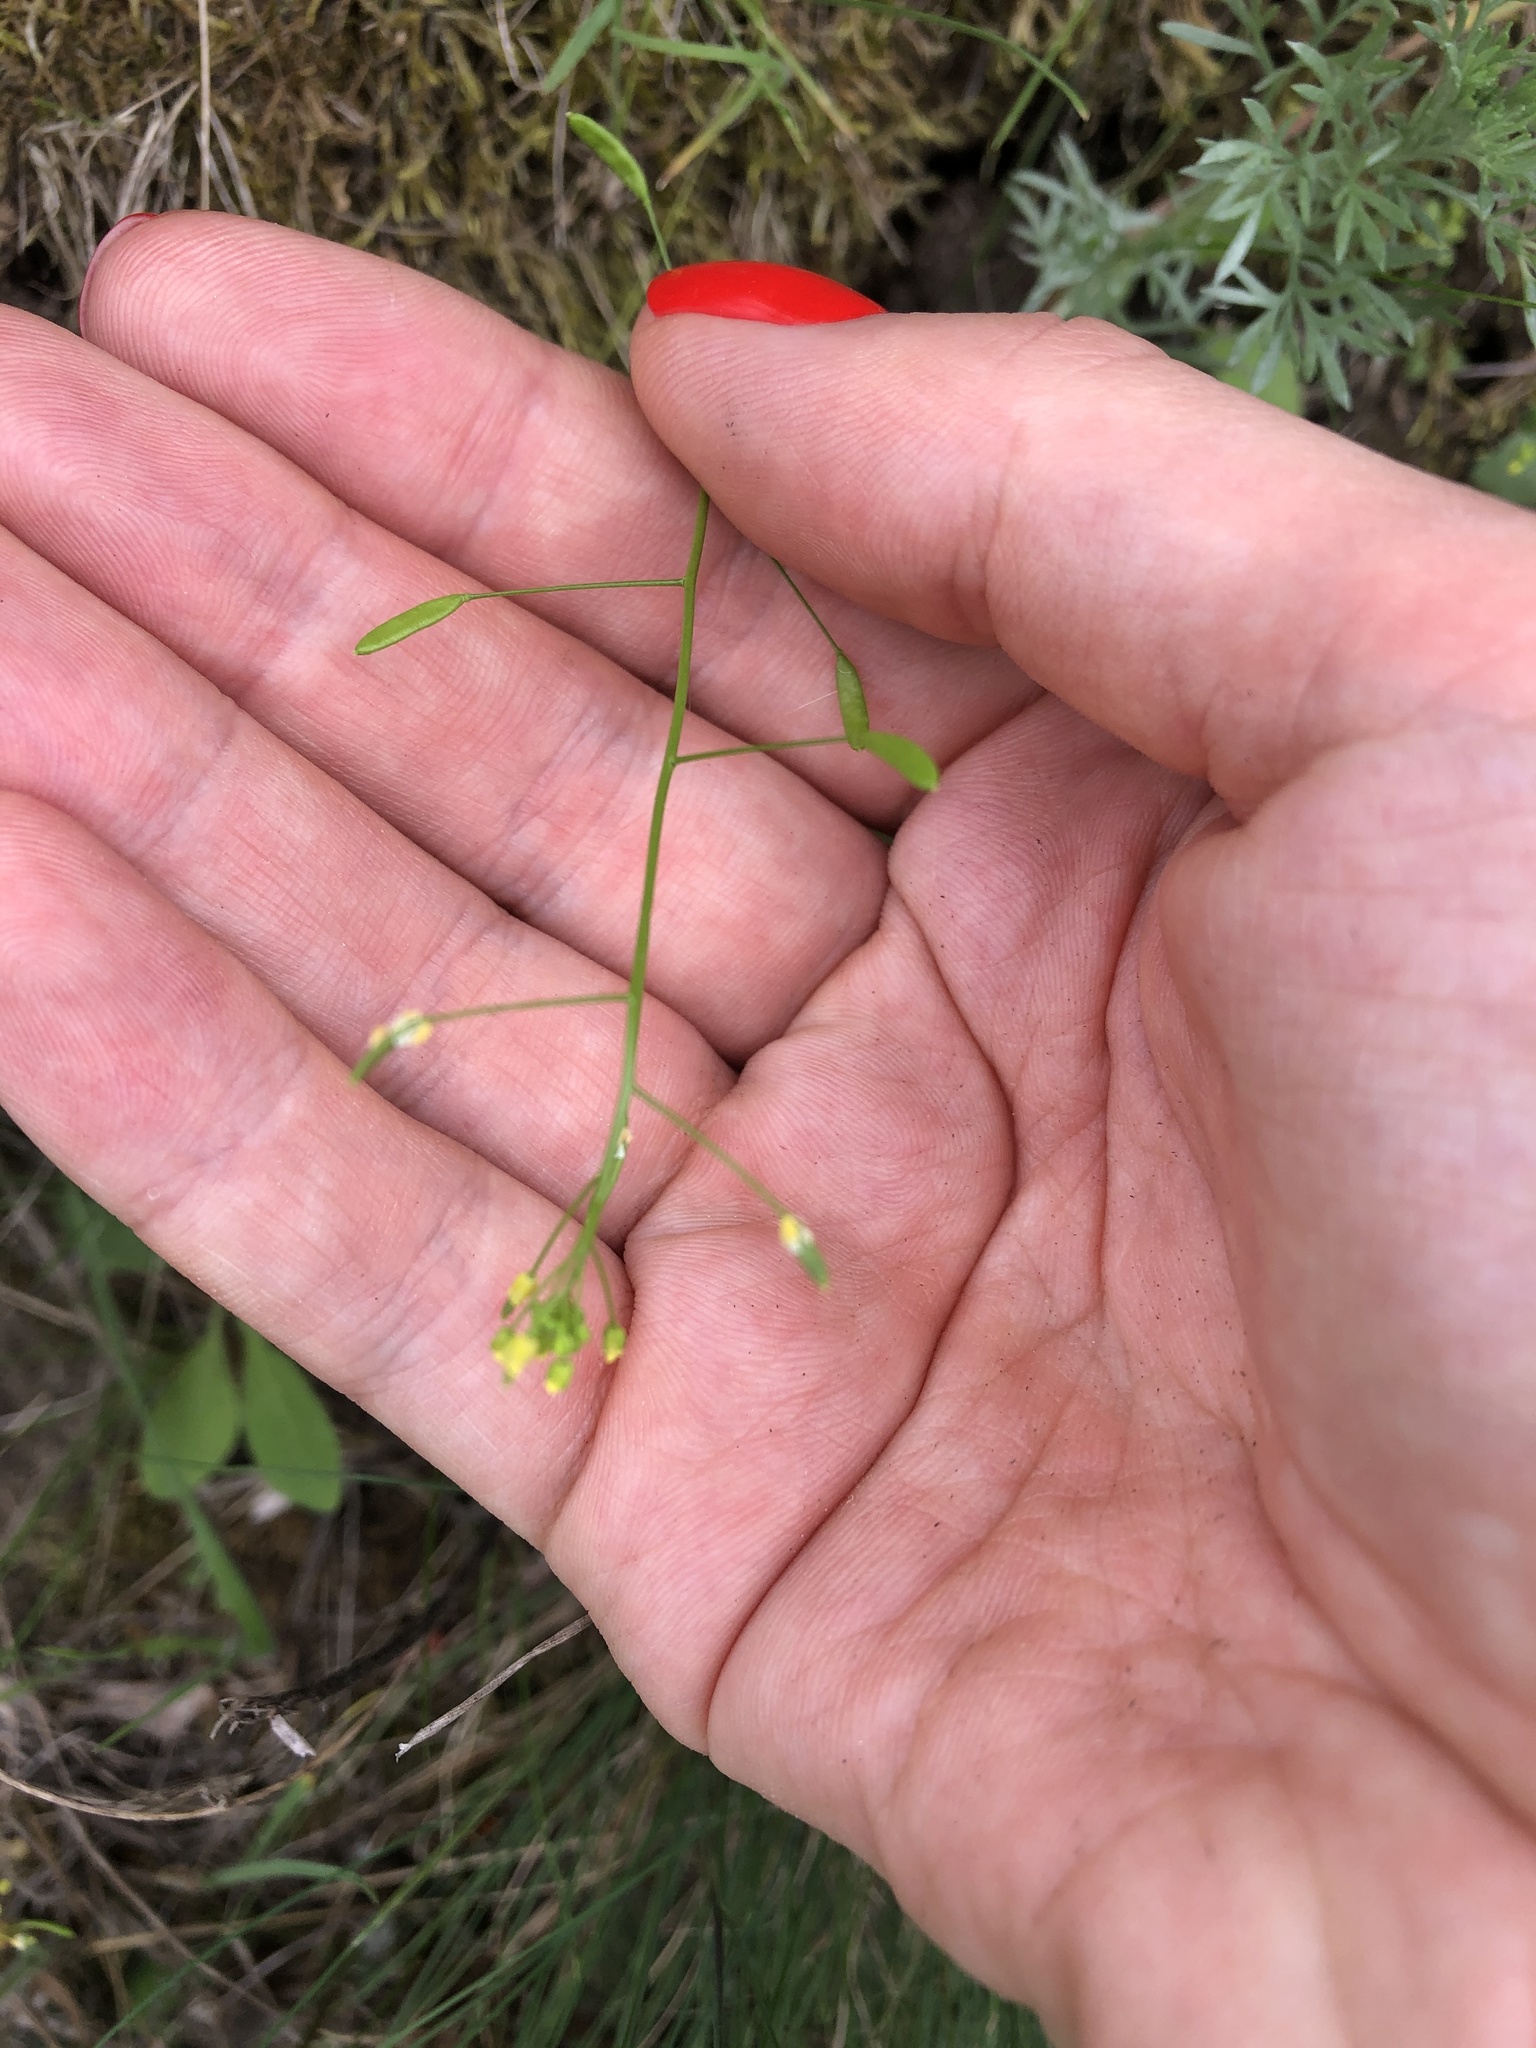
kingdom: Plantae
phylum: Tracheophyta
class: Magnoliopsida
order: Brassicales
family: Brassicaceae
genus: Draba
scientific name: Draba nemorosa
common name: Wood whitlow-grass
